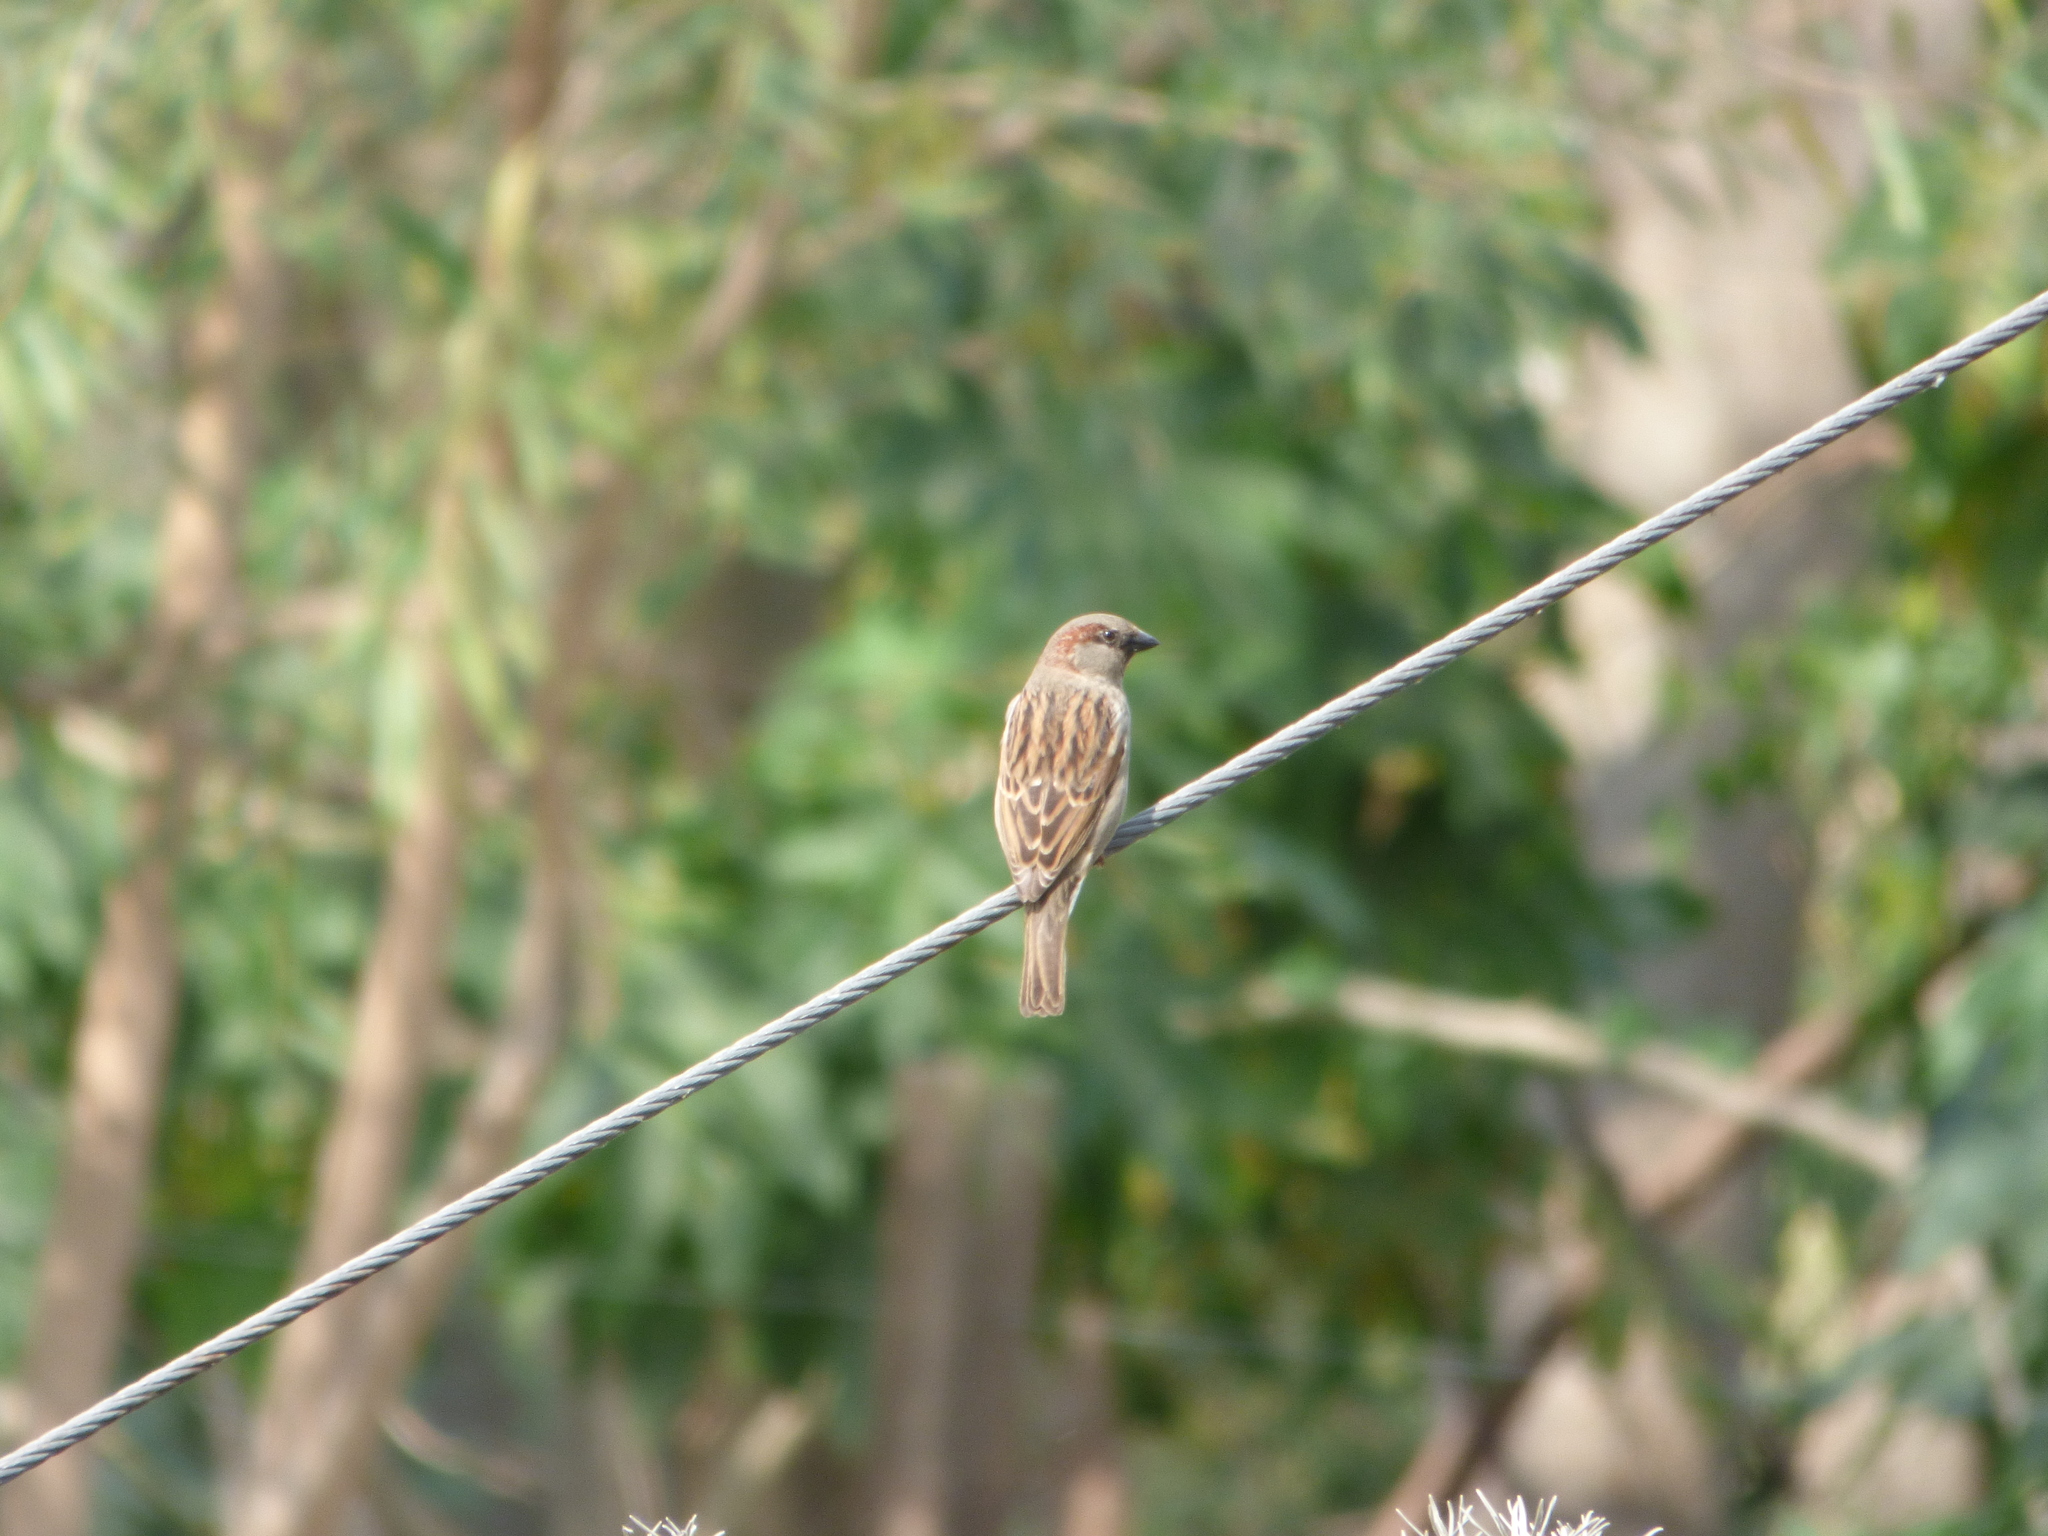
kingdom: Animalia
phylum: Chordata
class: Aves
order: Passeriformes
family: Passeridae
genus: Passer
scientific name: Passer domesticus
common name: House sparrow
